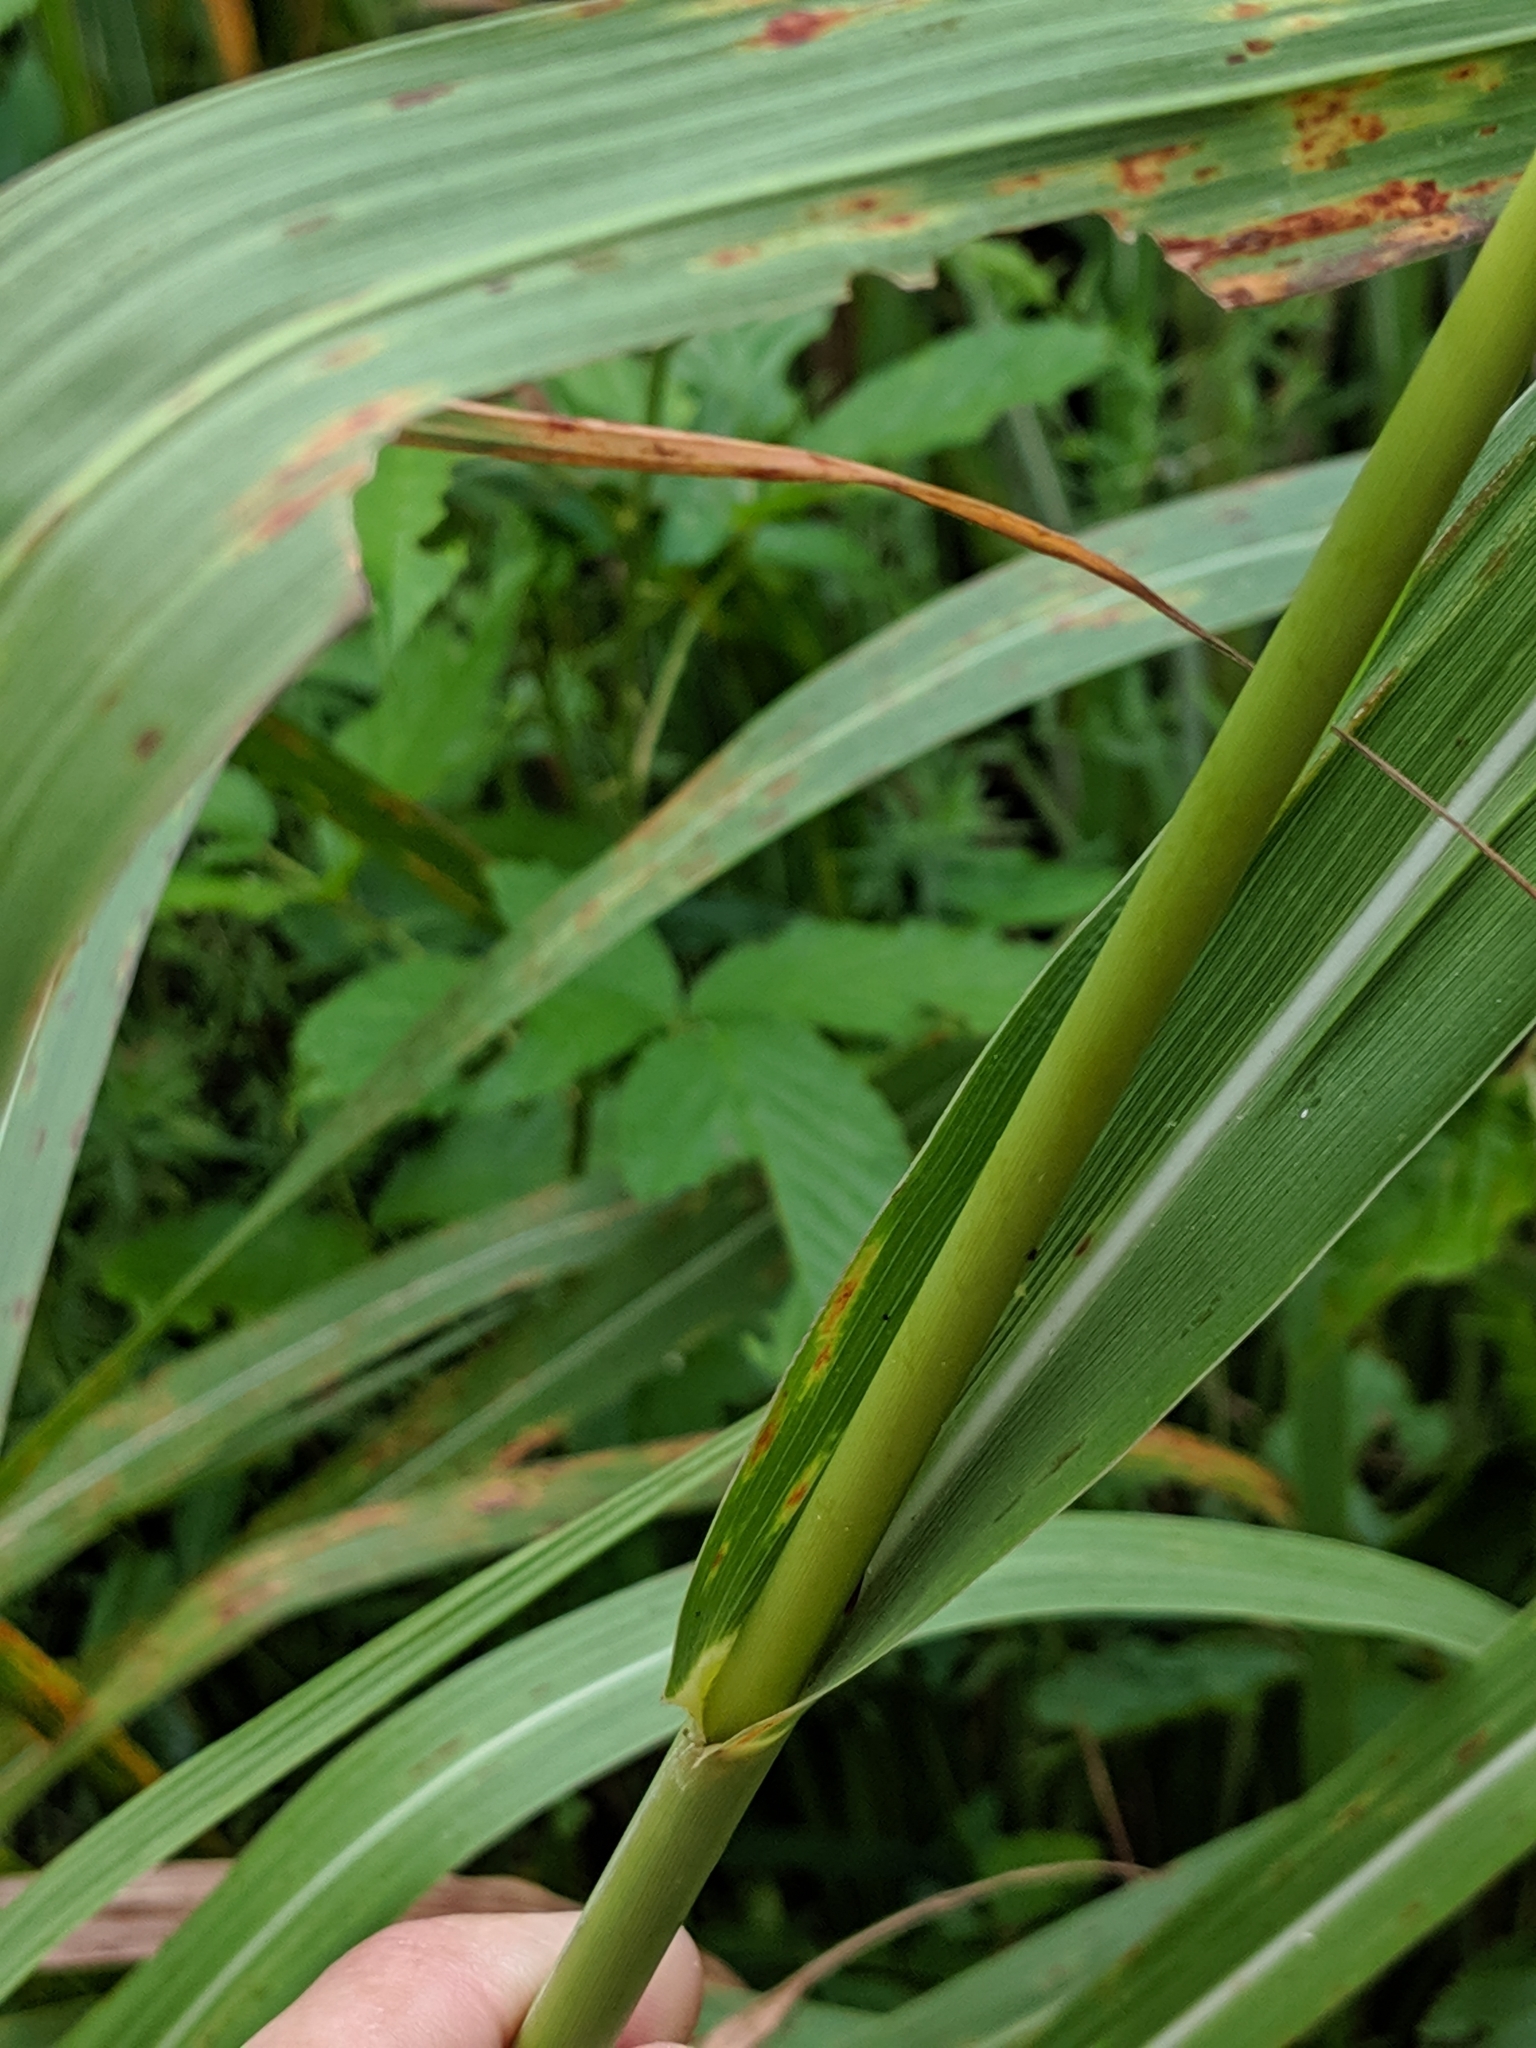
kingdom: Plantae
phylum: Tracheophyta
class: Liliopsida
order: Poales
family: Poaceae
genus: Tripsacum
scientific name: Tripsacum dactyloides
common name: Buffalo-grass
